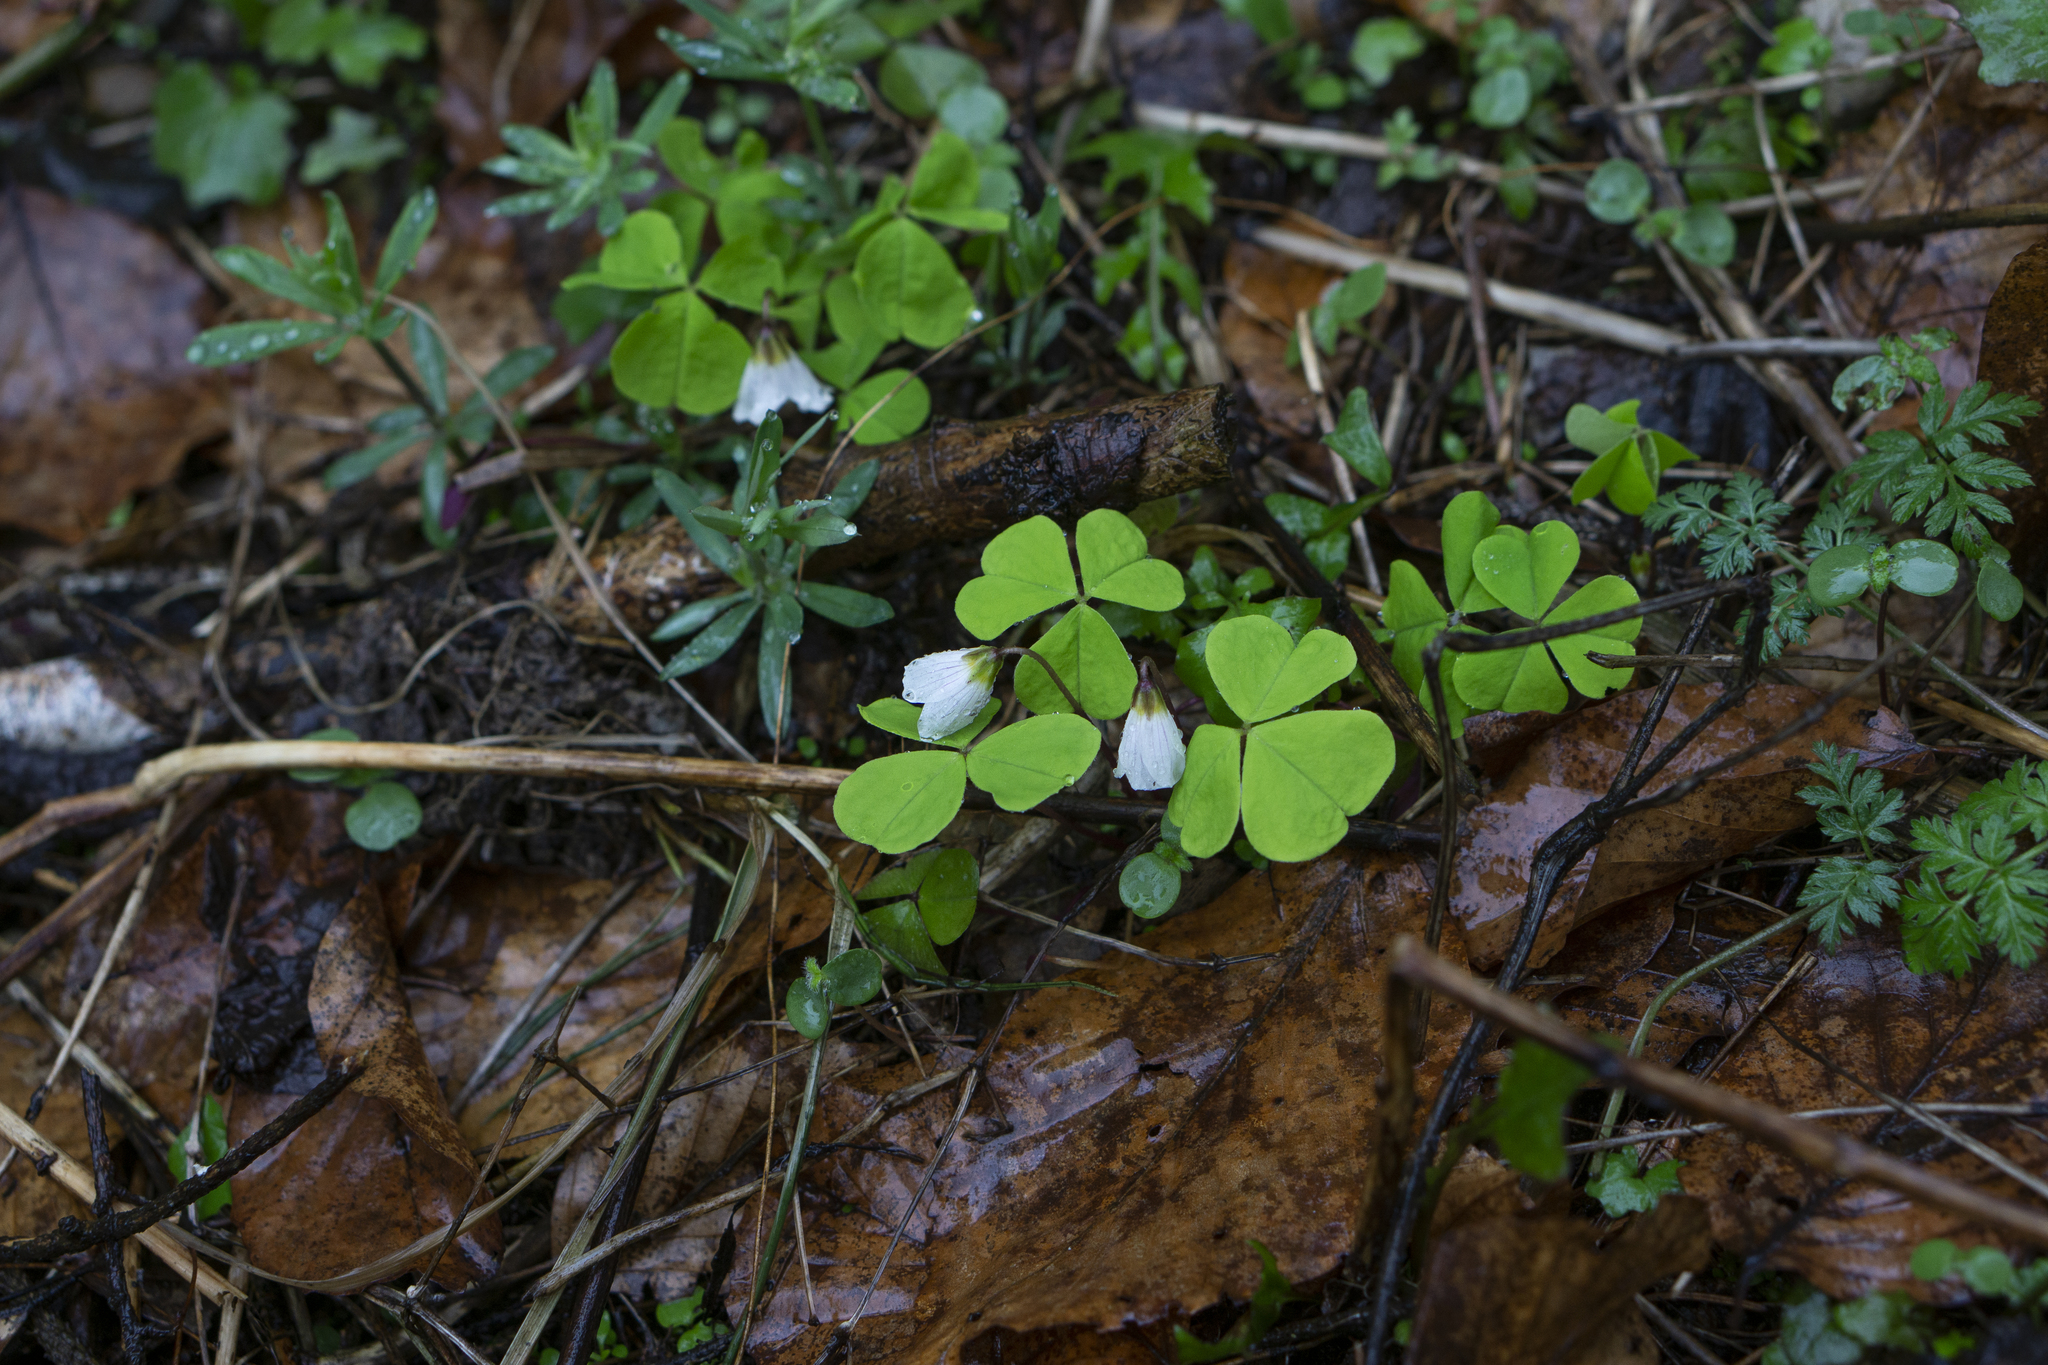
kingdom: Plantae
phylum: Tracheophyta
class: Magnoliopsida
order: Oxalidales
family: Oxalidaceae
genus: Oxalis
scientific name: Oxalis acetosella
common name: Wood-sorrel
